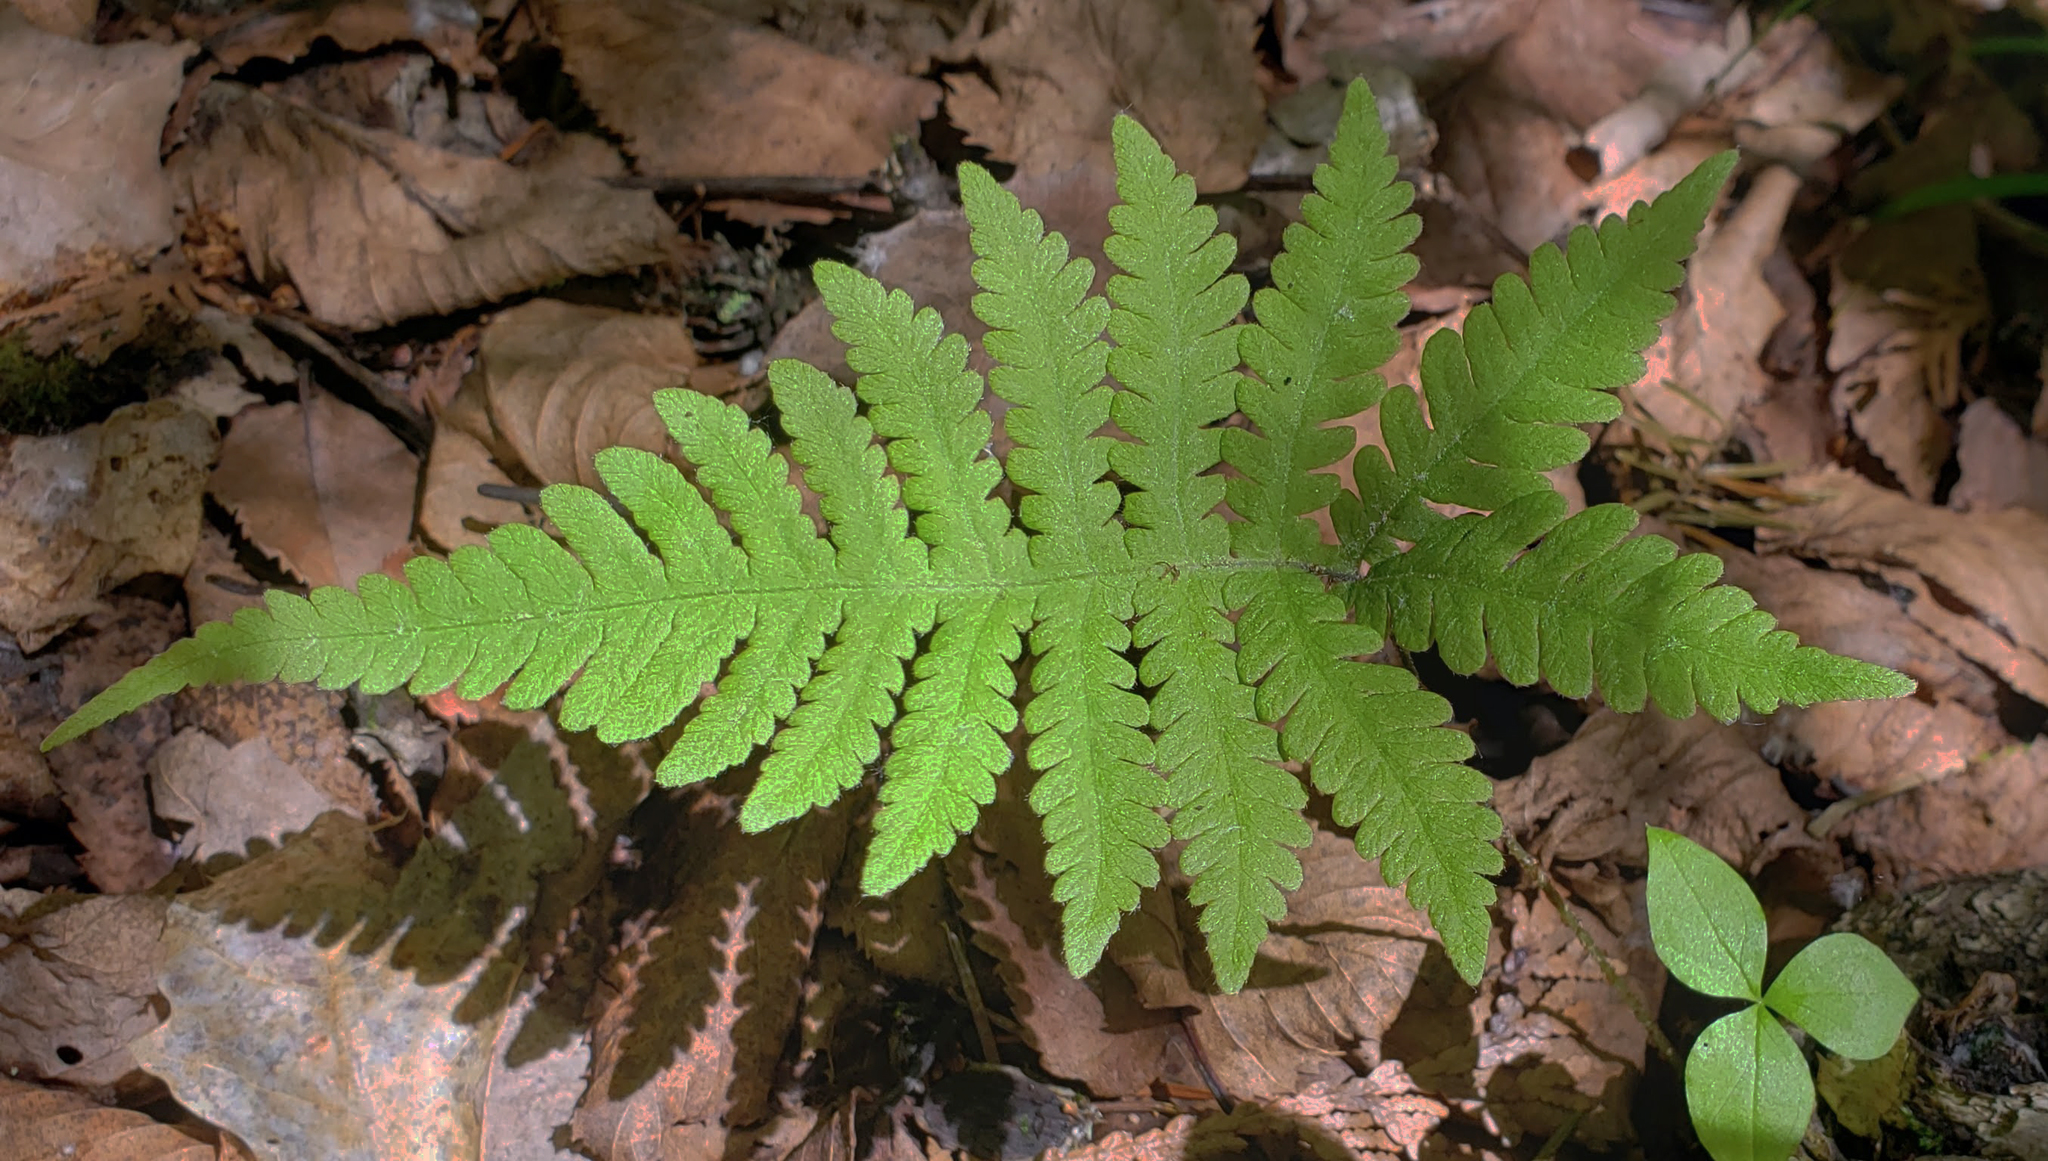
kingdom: Plantae
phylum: Tracheophyta
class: Polypodiopsida
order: Polypodiales
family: Thelypteridaceae
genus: Phegopteris
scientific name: Phegopteris connectilis
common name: Beech fern
